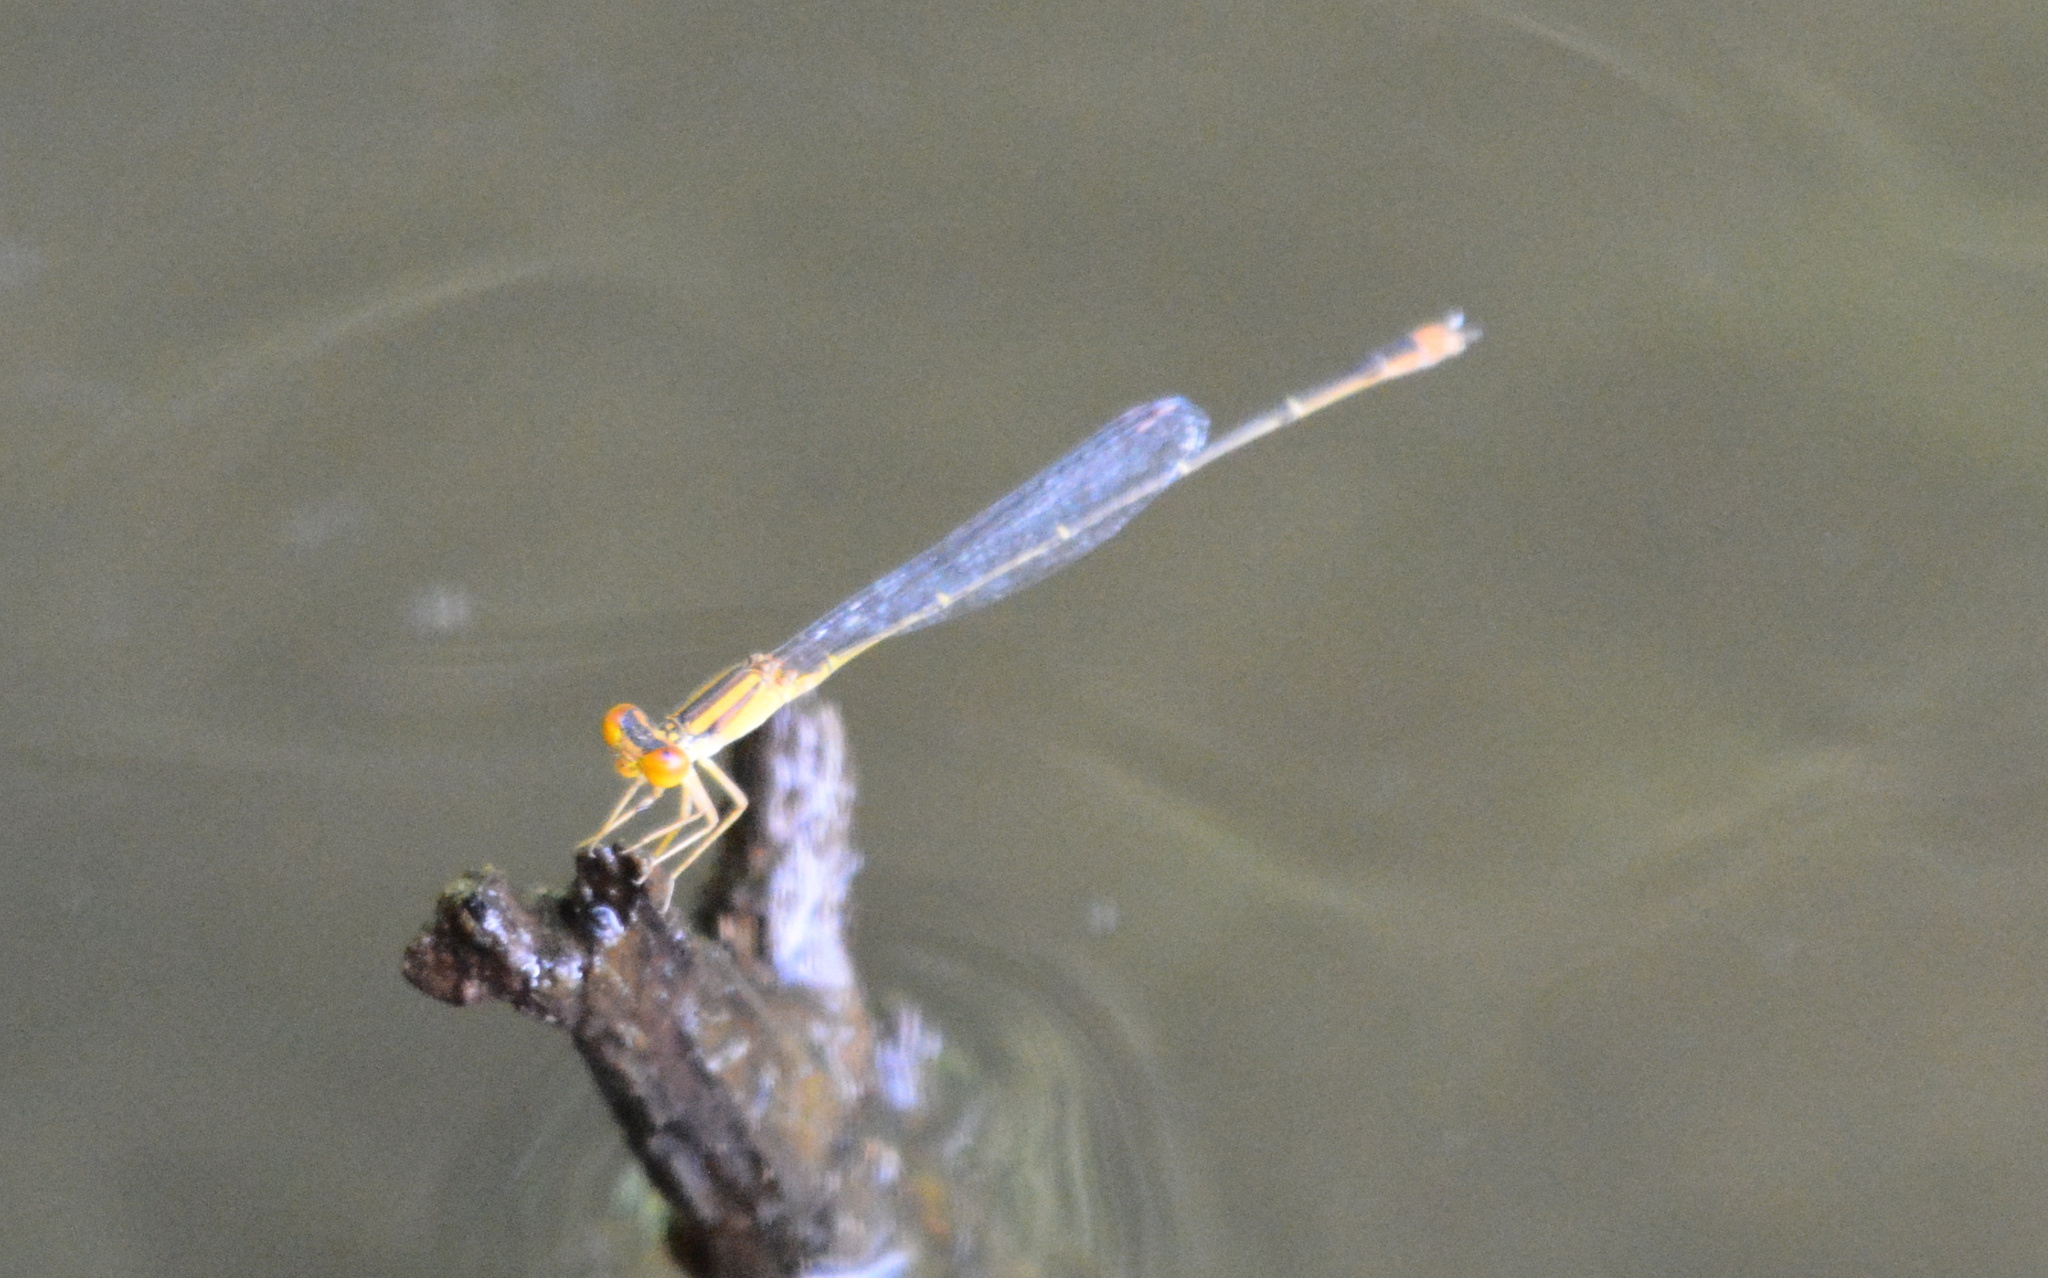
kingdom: Animalia
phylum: Arthropoda
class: Insecta
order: Odonata
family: Coenagrionidae
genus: Enallagma
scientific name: Enallagma signatum
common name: Orange bluet
